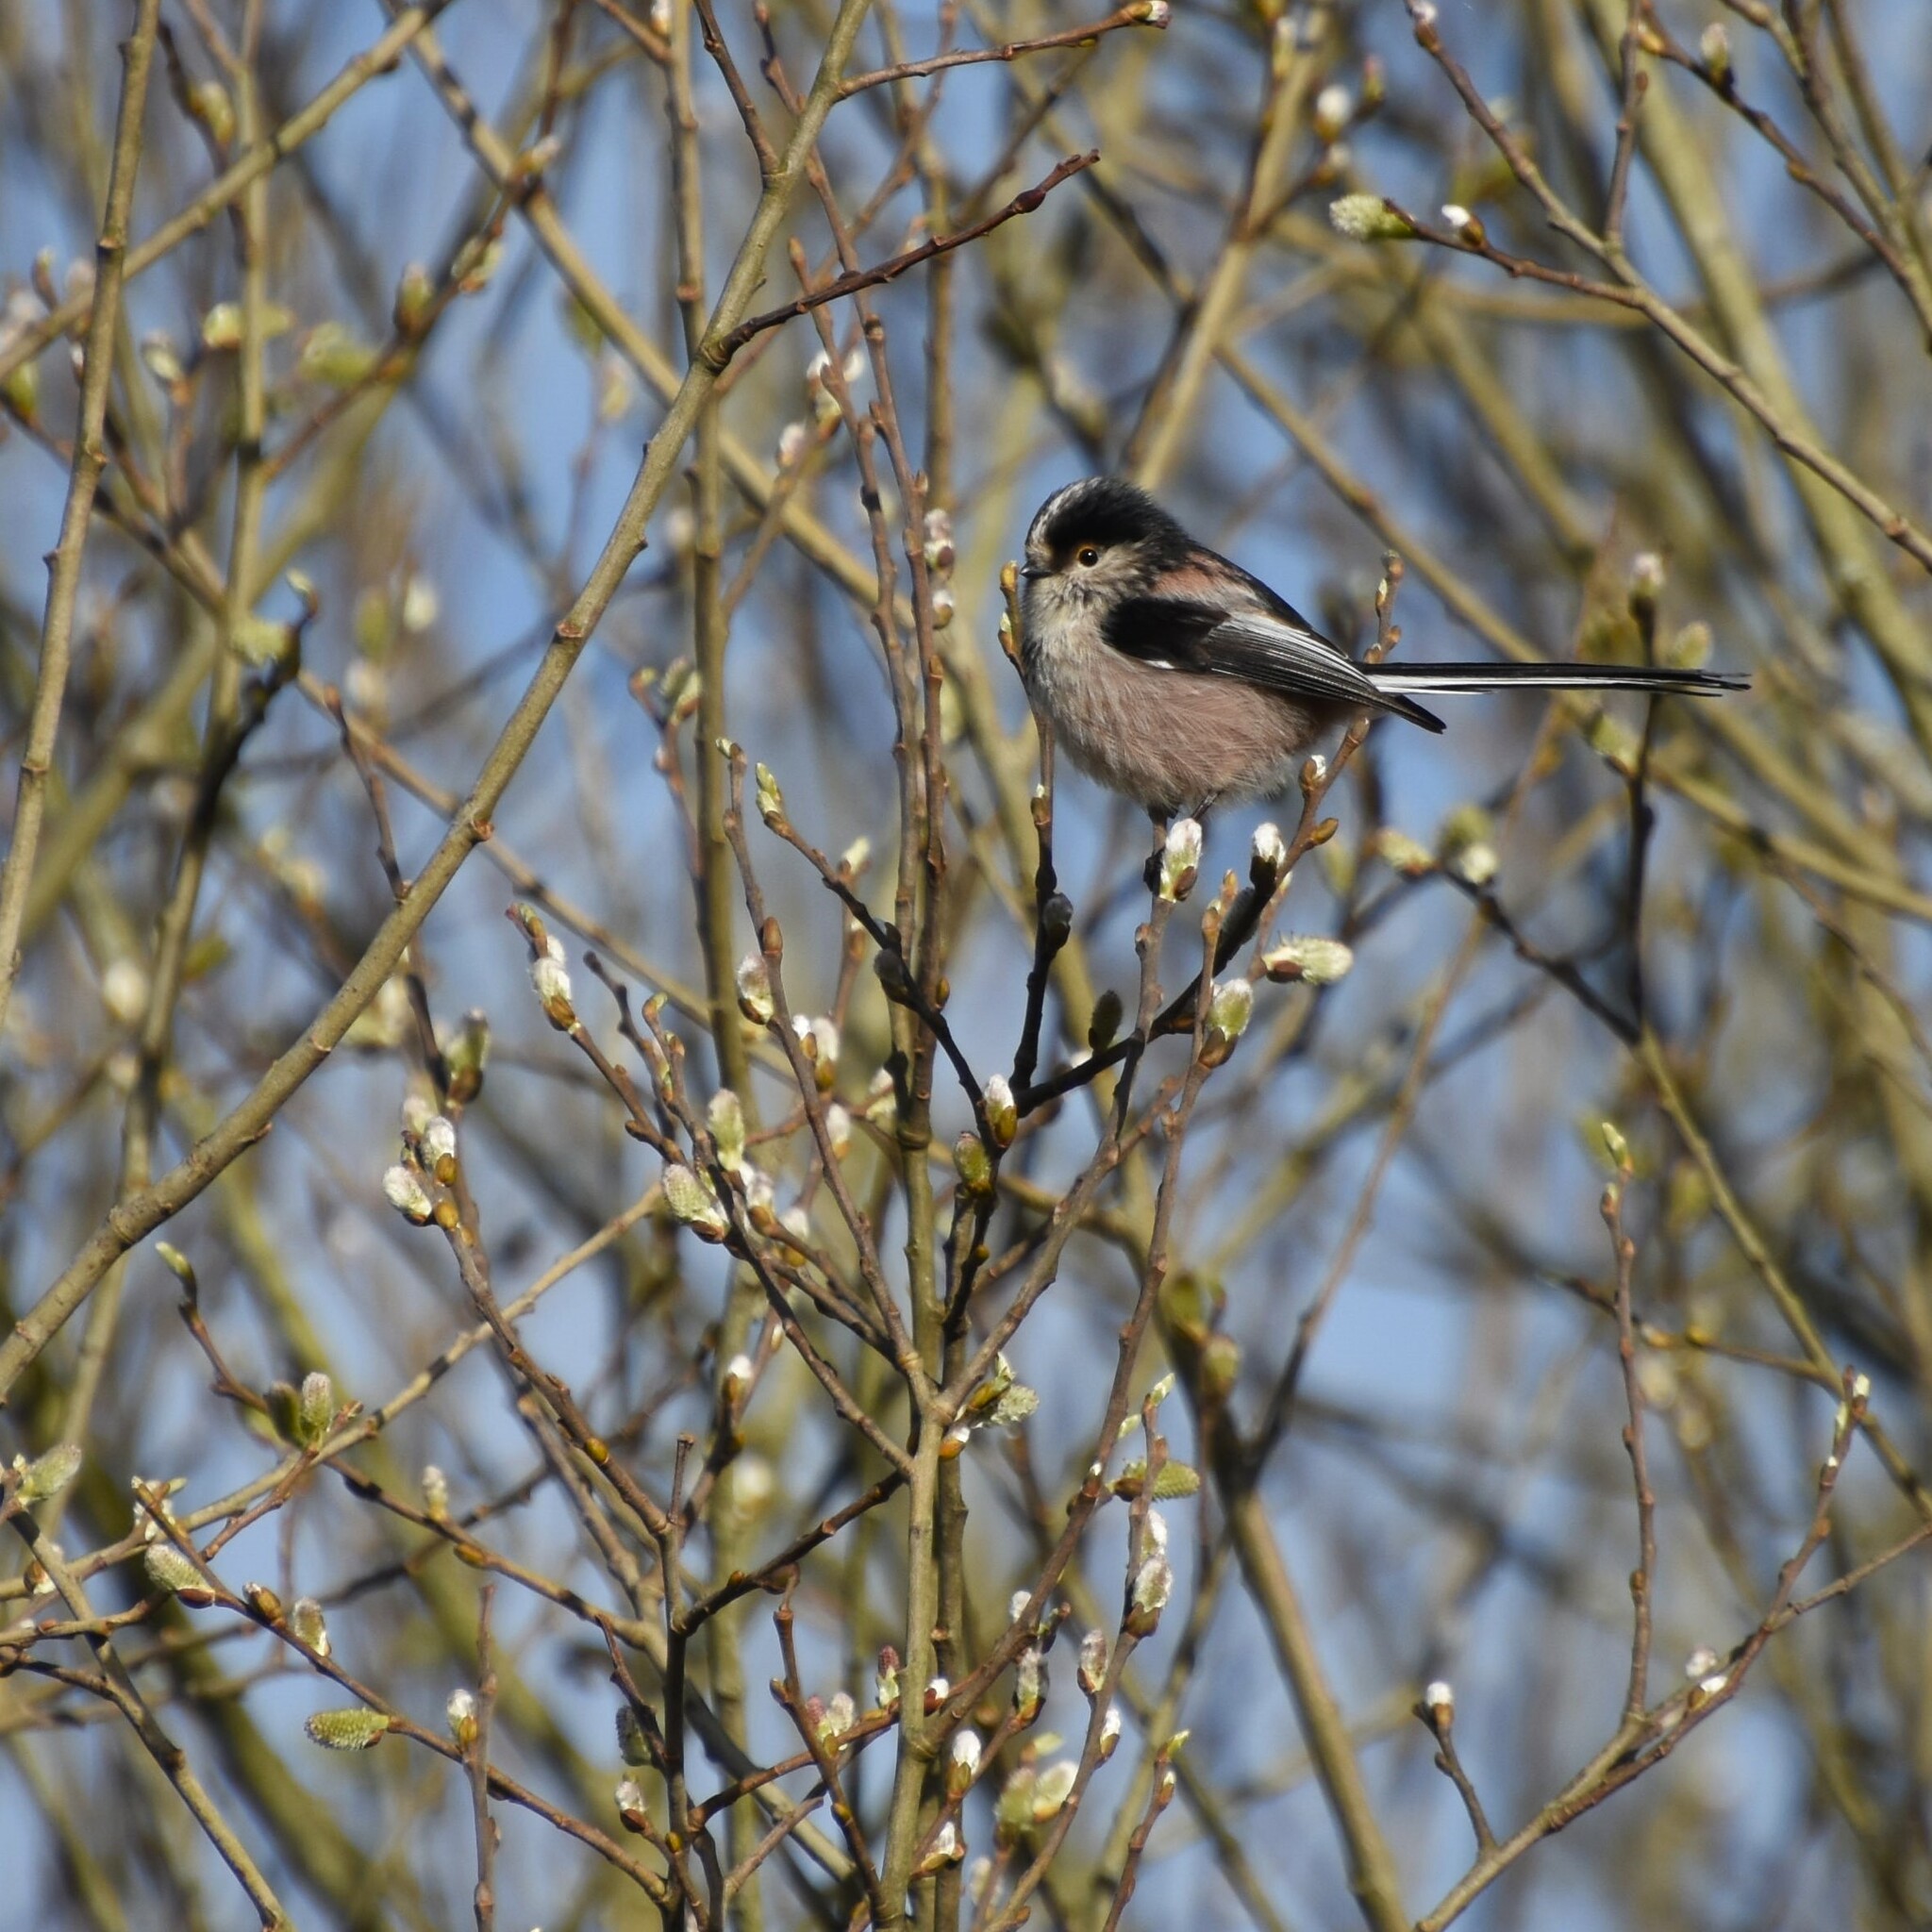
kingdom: Animalia
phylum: Chordata
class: Aves
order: Passeriformes
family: Aegithalidae
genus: Aegithalos
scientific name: Aegithalos caudatus
